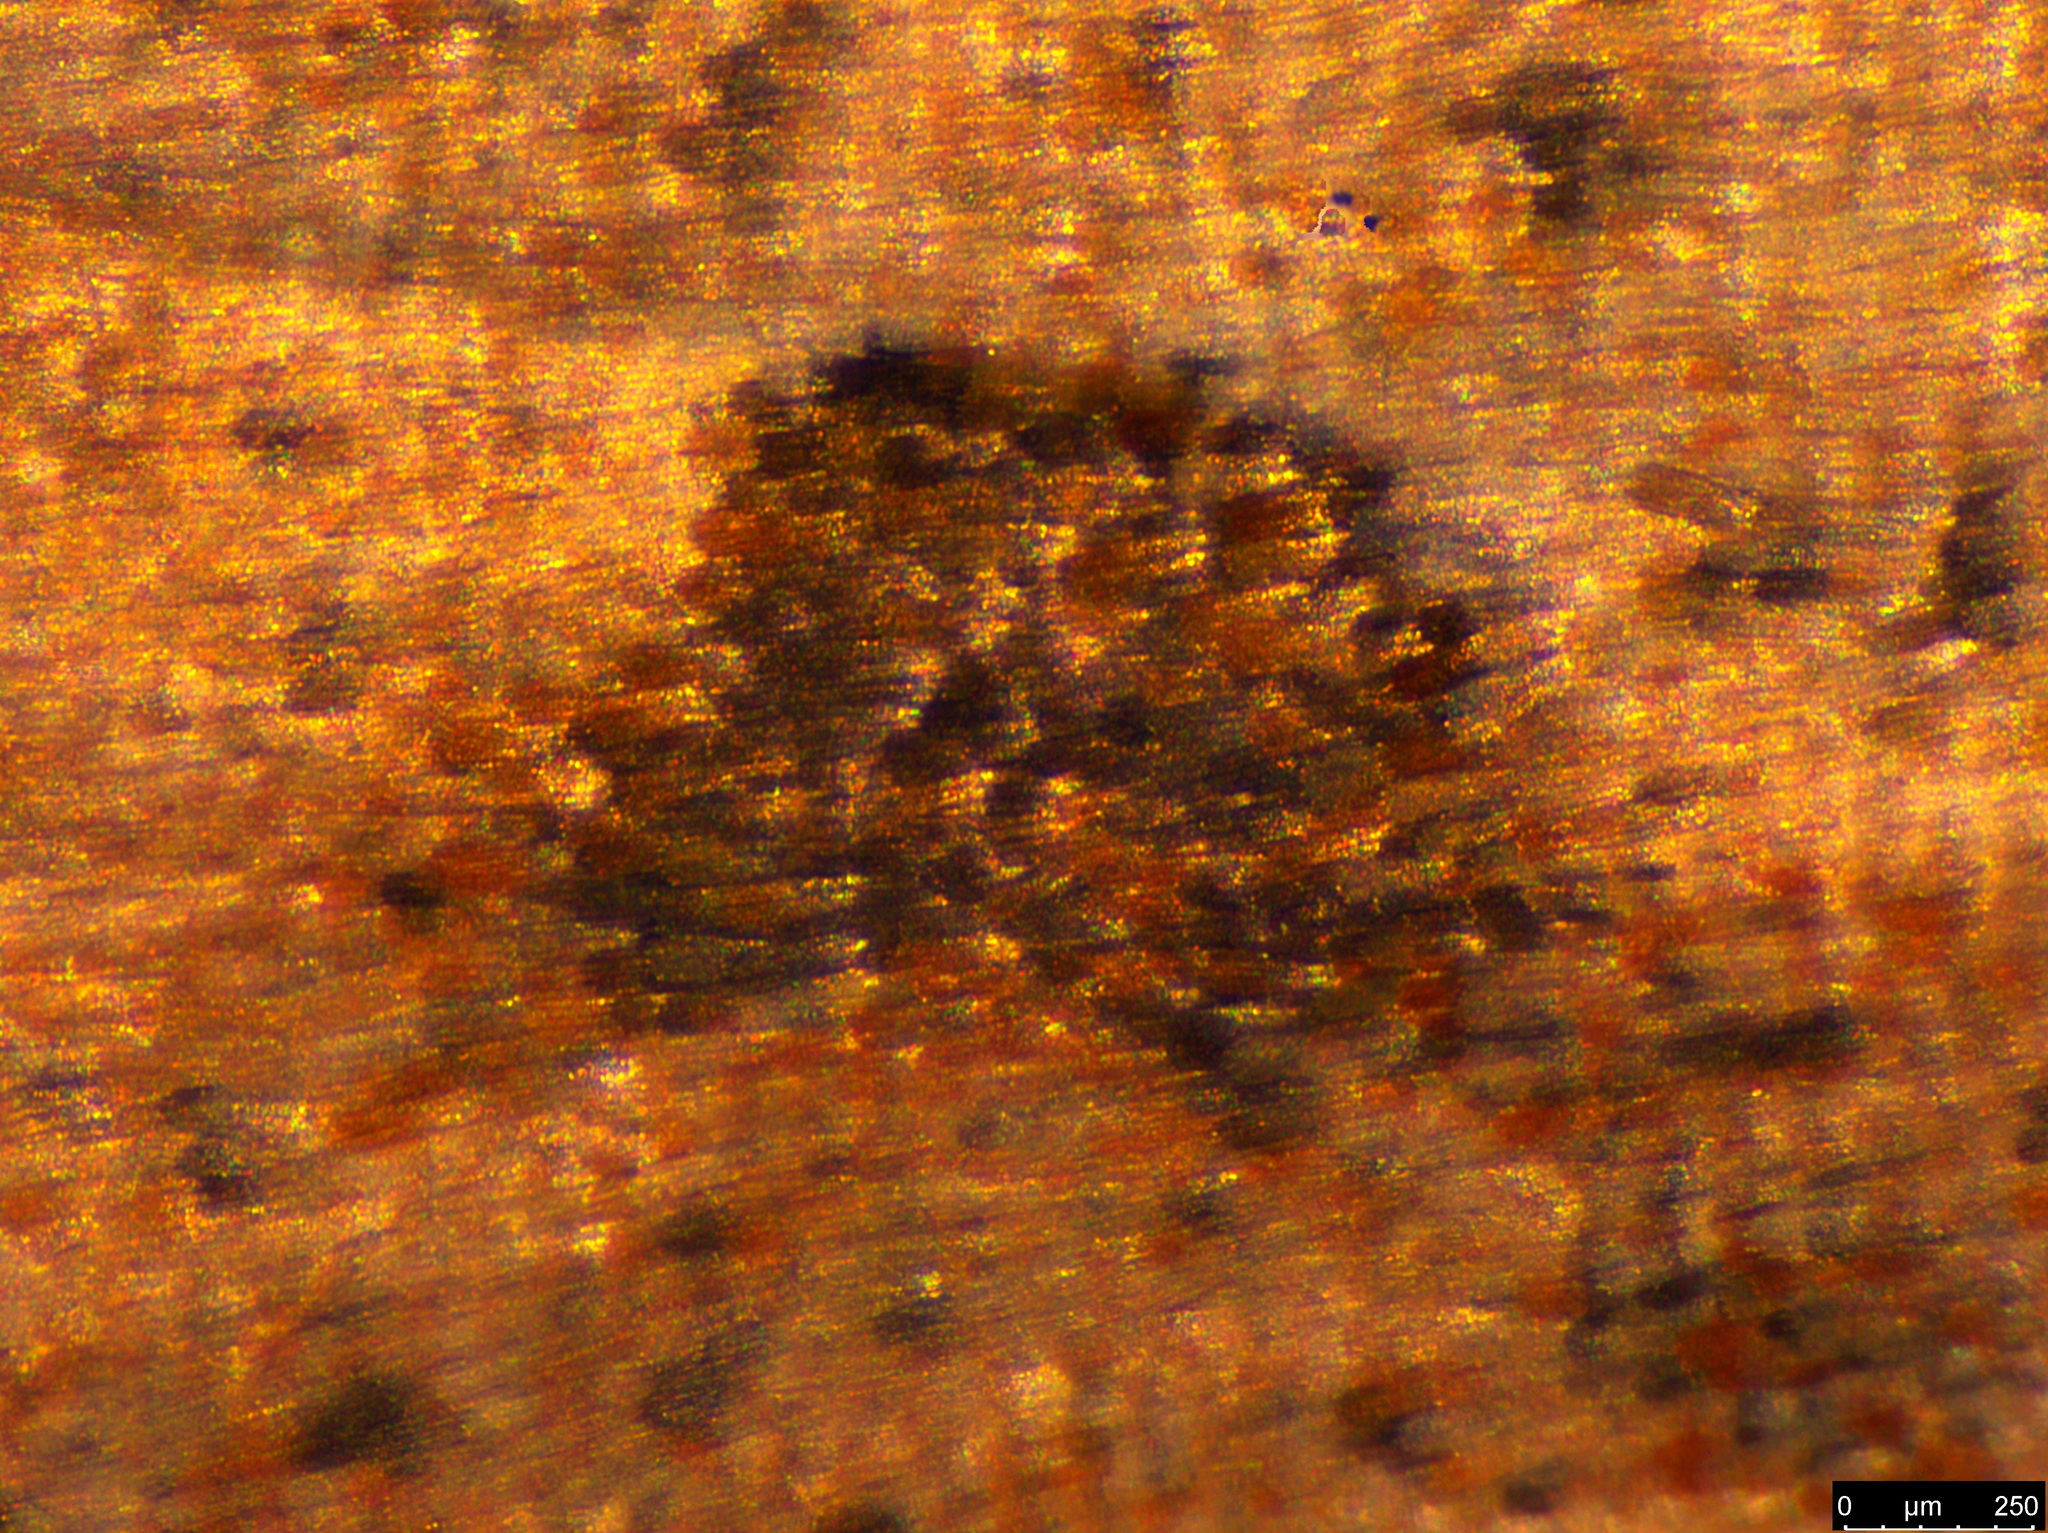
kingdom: Animalia
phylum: Arthropoda
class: Insecta
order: Lepidoptera
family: Tortricidae
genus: Meritastis
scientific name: Meritastis polygraphana
